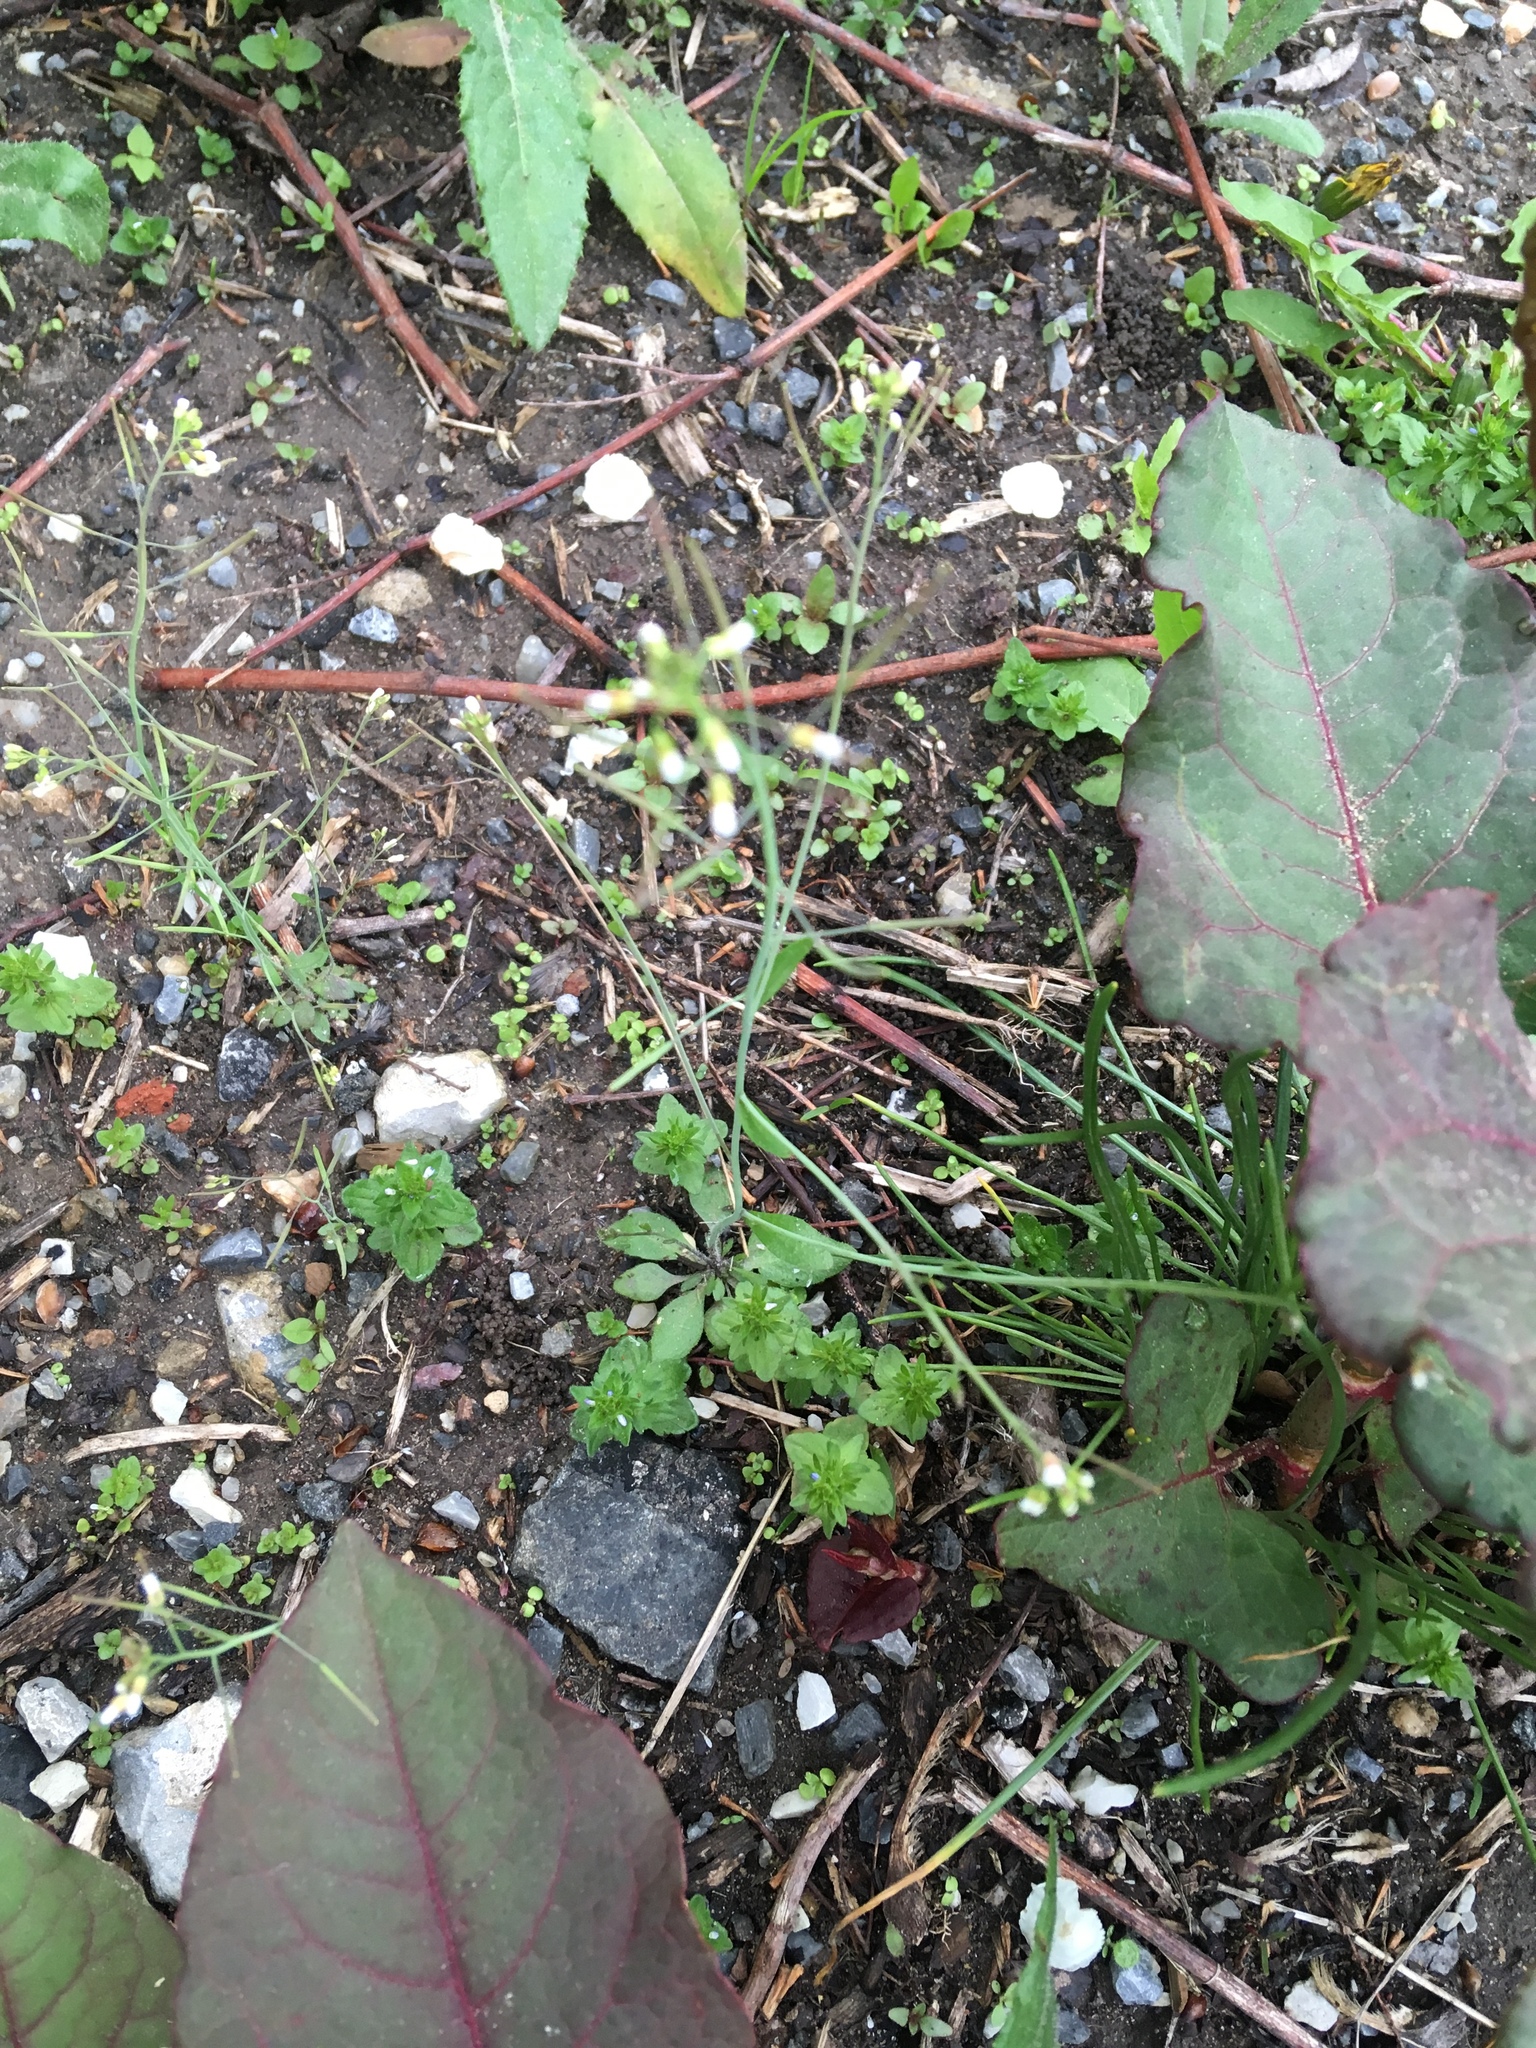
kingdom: Plantae
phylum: Tracheophyta
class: Magnoliopsida
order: Brassicales
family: Brassicaceae
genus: Arabidopsis
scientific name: Arabidopsis thaliana
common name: Thale cress
